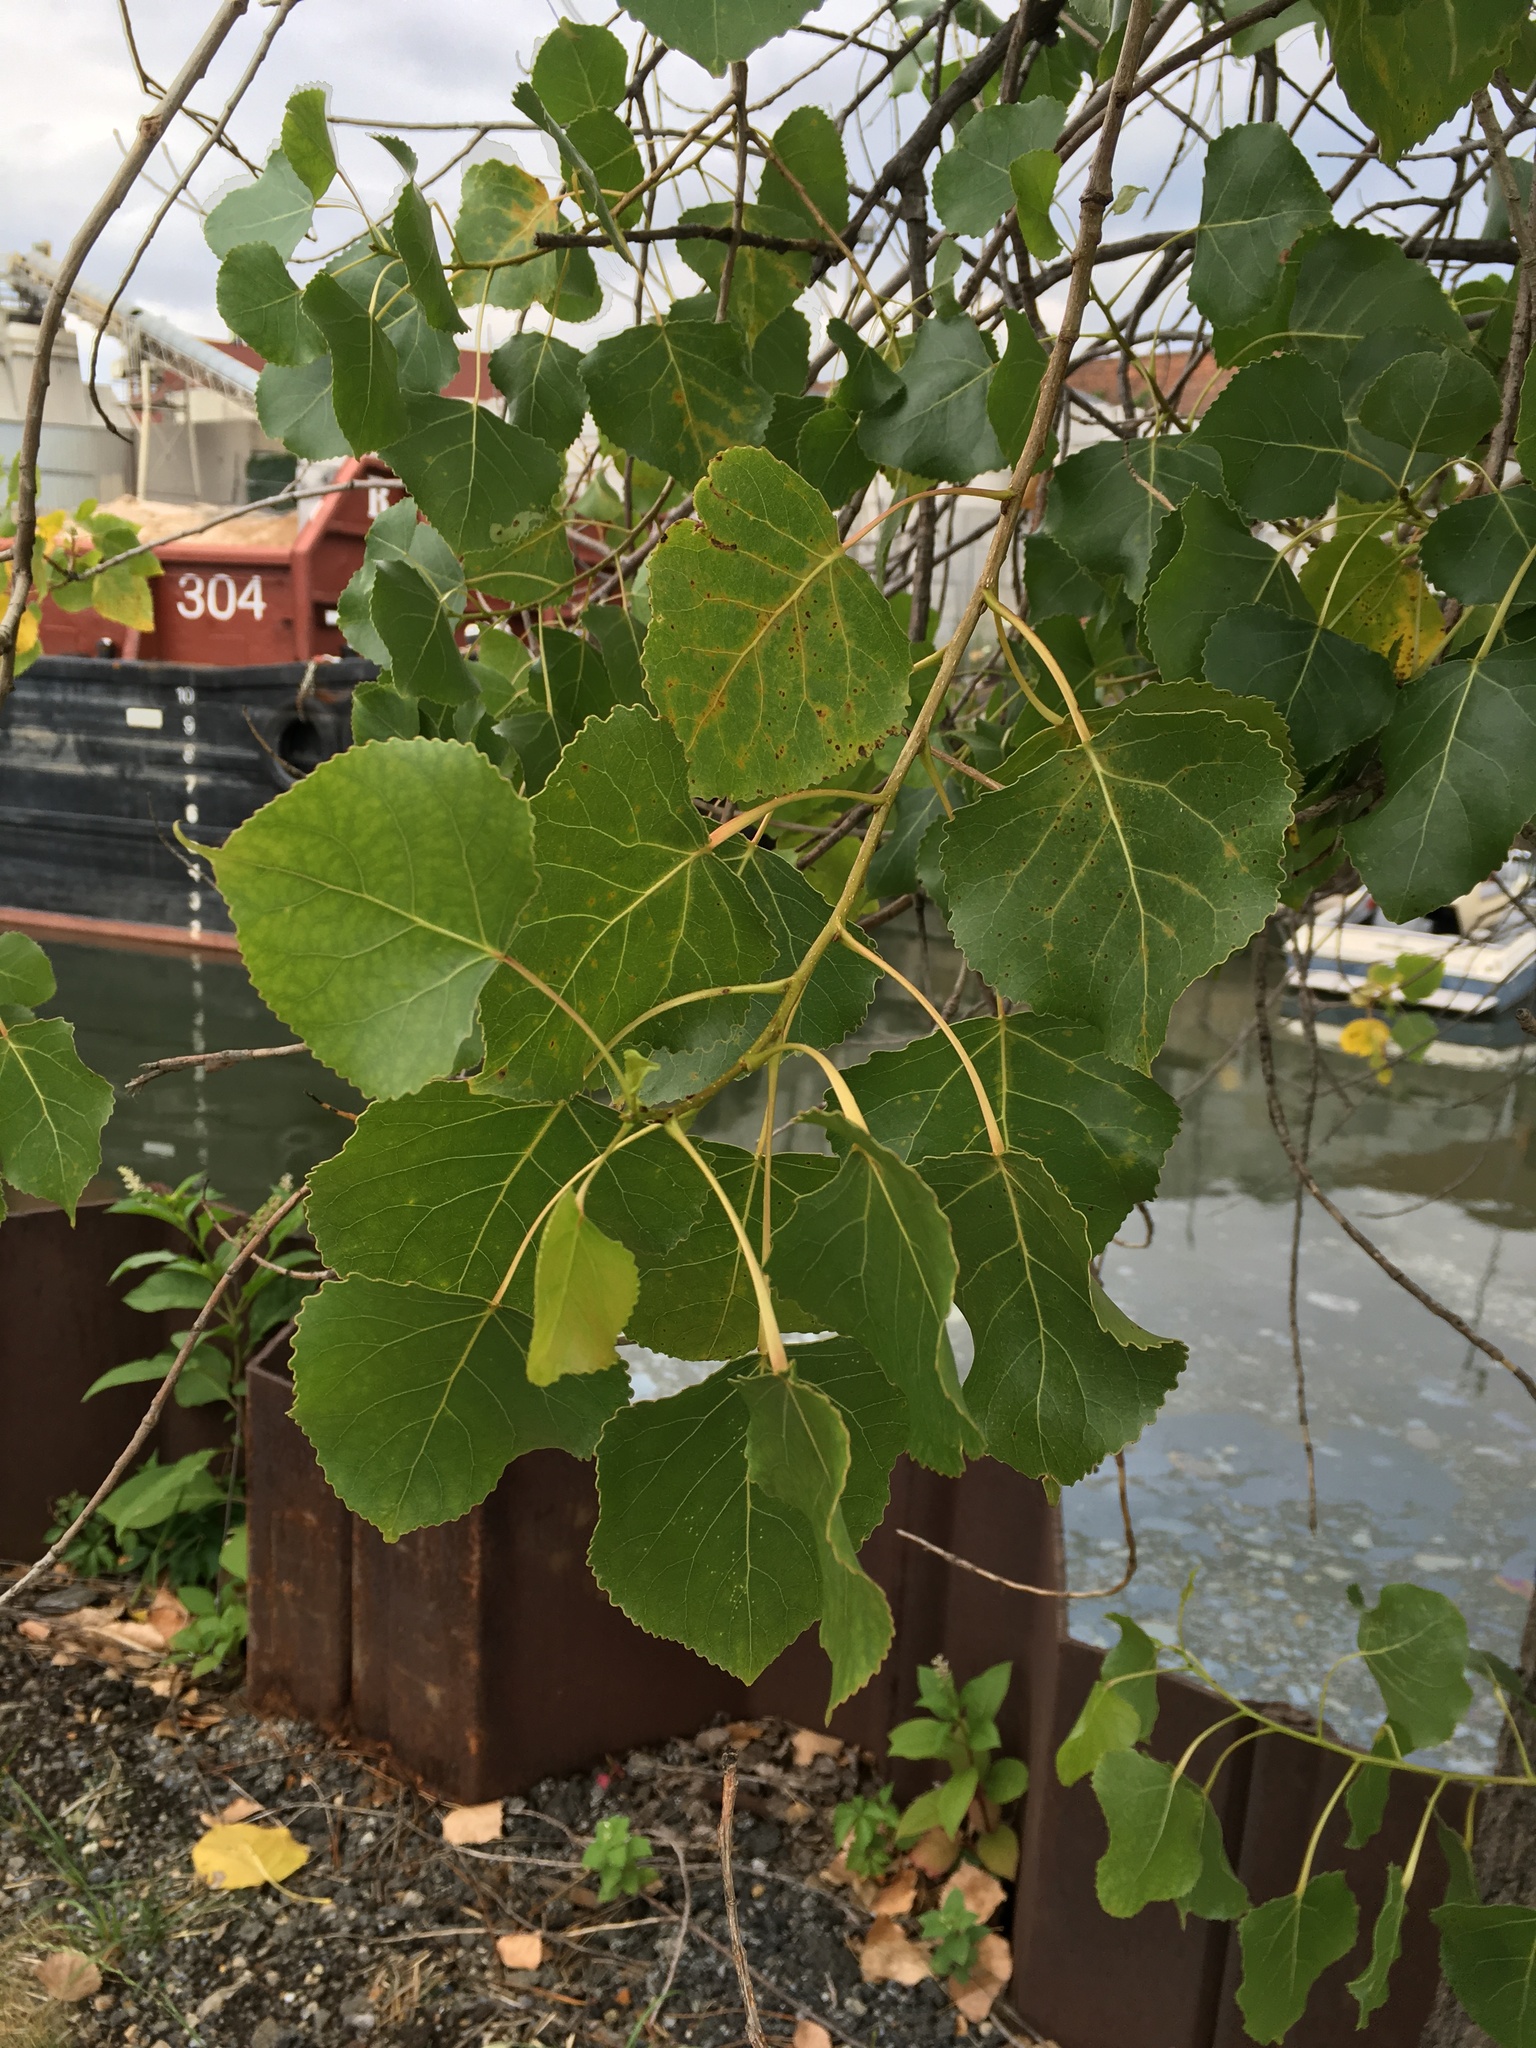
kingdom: Plantae
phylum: Tracheophyta
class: Magnoliopsida
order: Malpighiales
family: Salicaceae
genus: Populus
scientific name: Populus deltoides
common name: Eastern cottonwood
